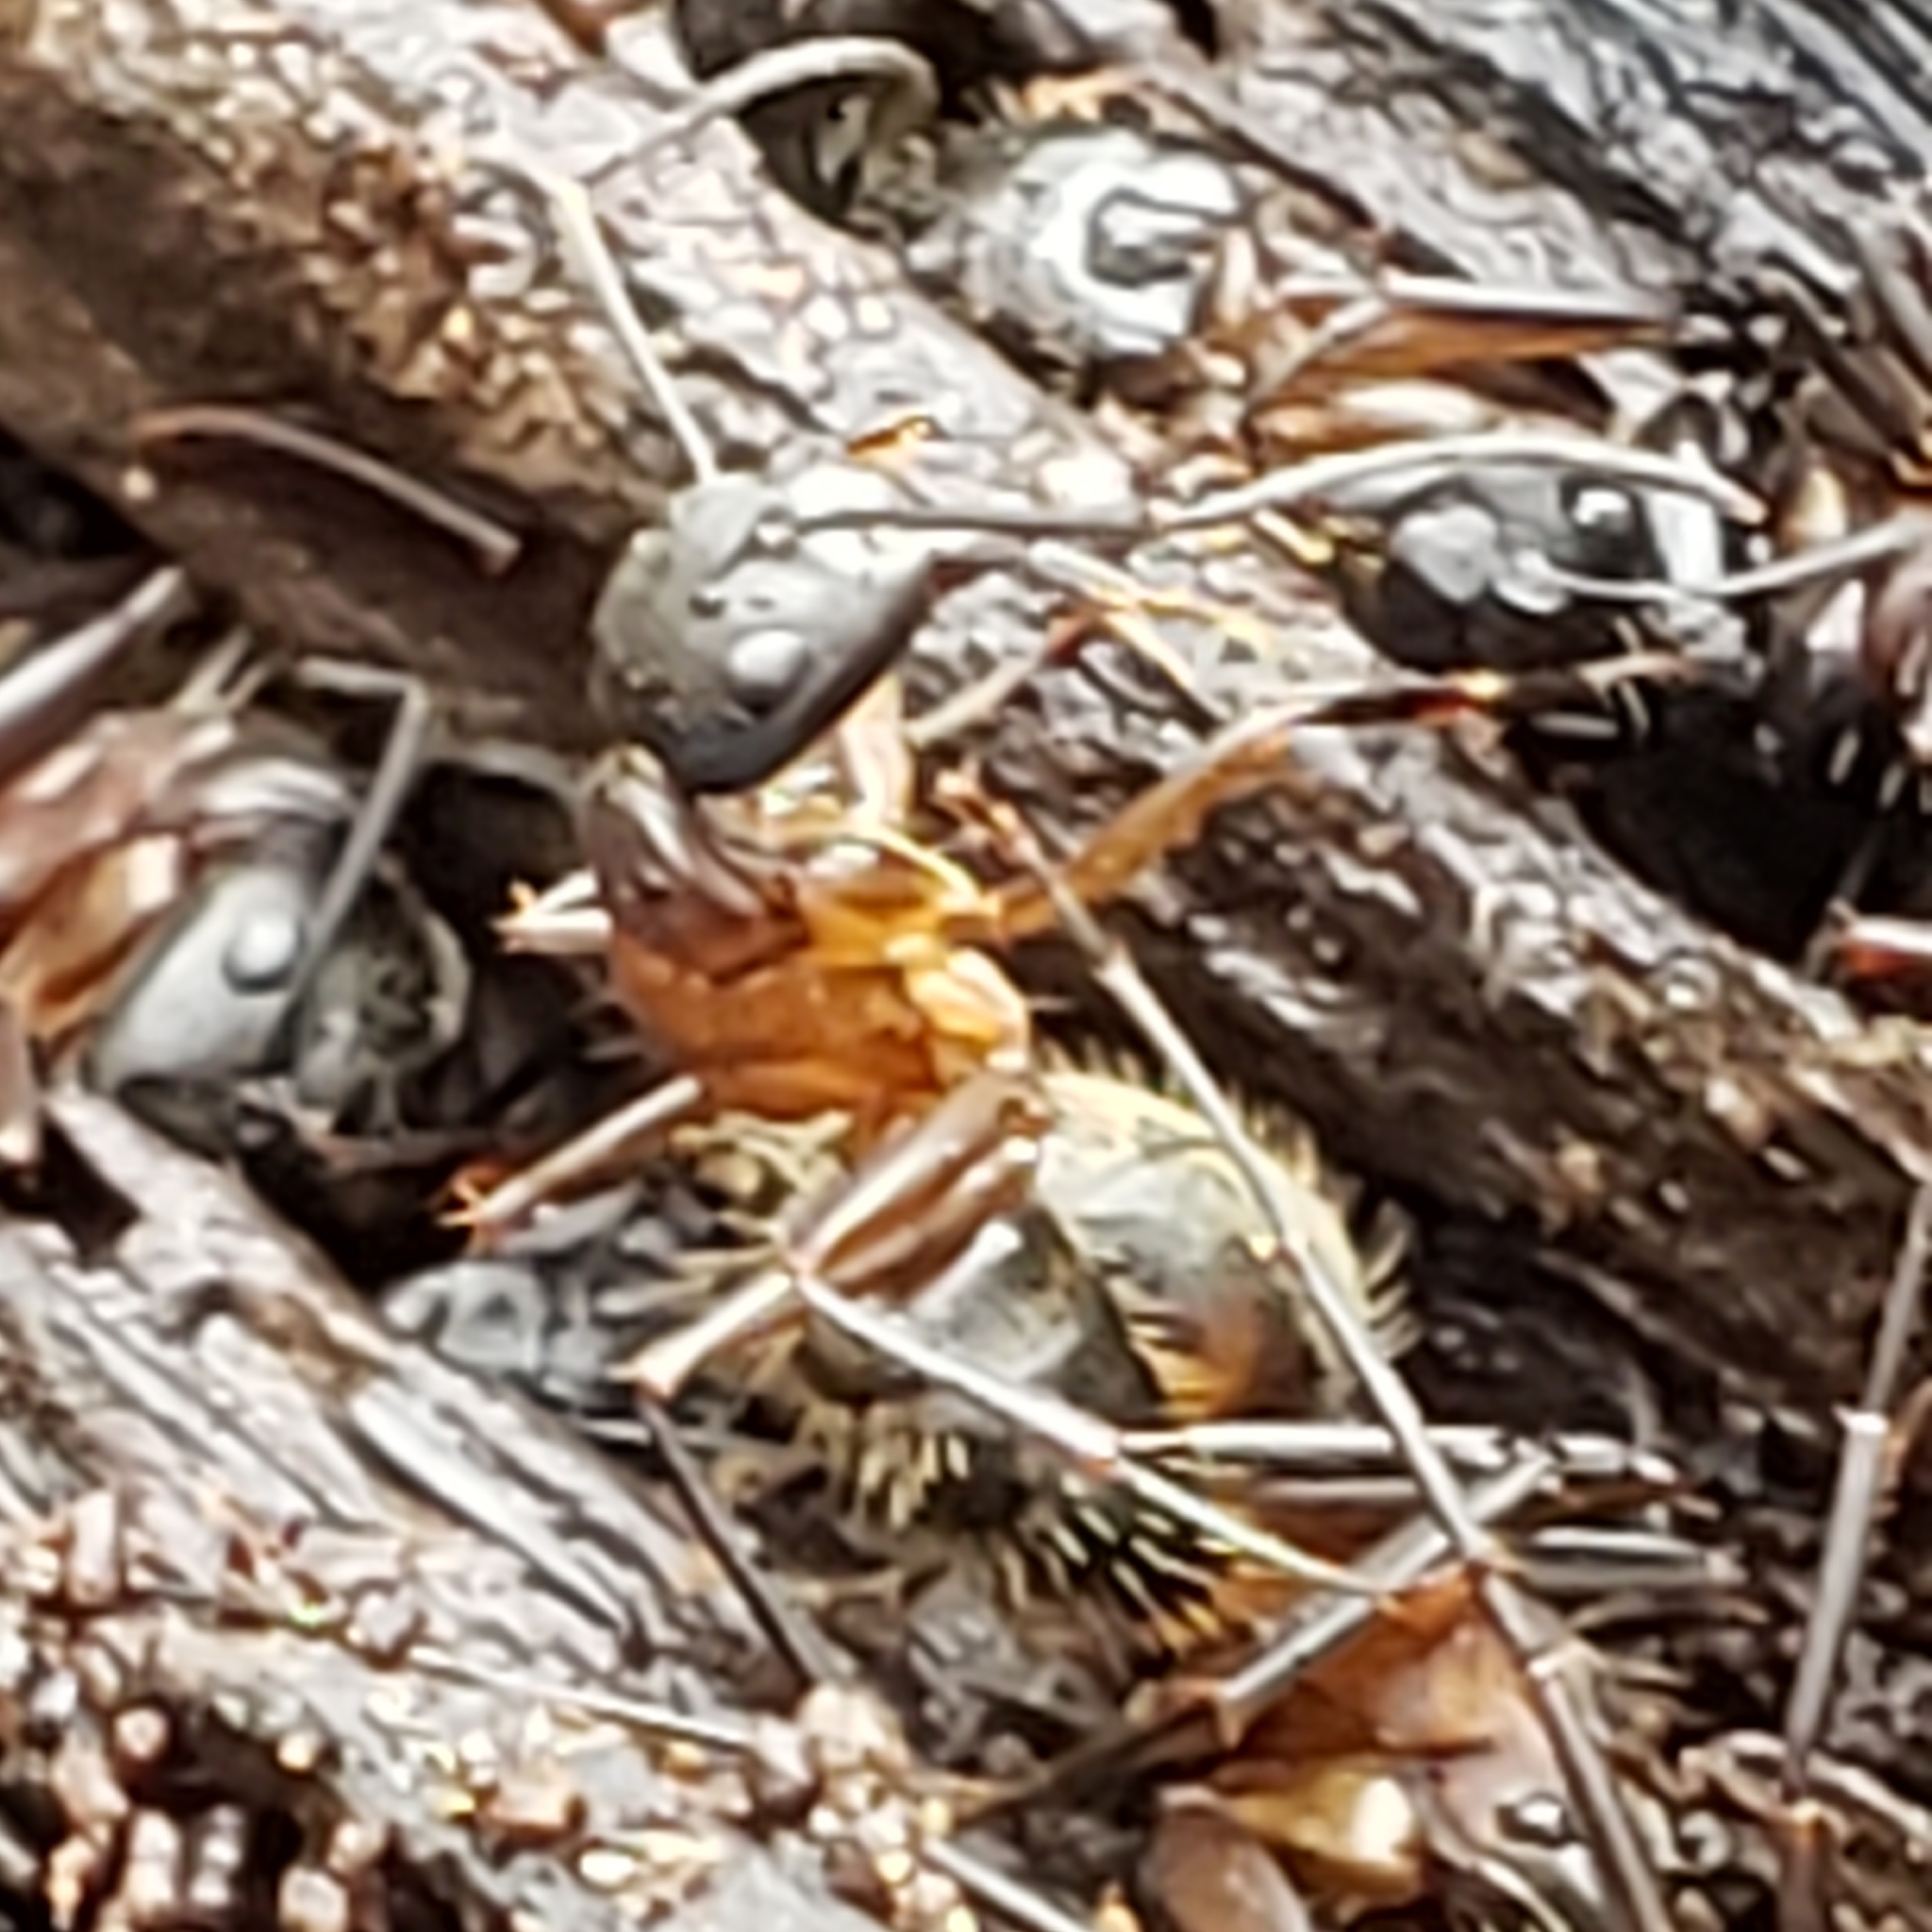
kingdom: Animalia
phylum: Arthropoda
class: Insecta
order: Hymenoptera
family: Formicidae
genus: Camponotus
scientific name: Camponotus chromaiodes
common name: Red carpenter ant
